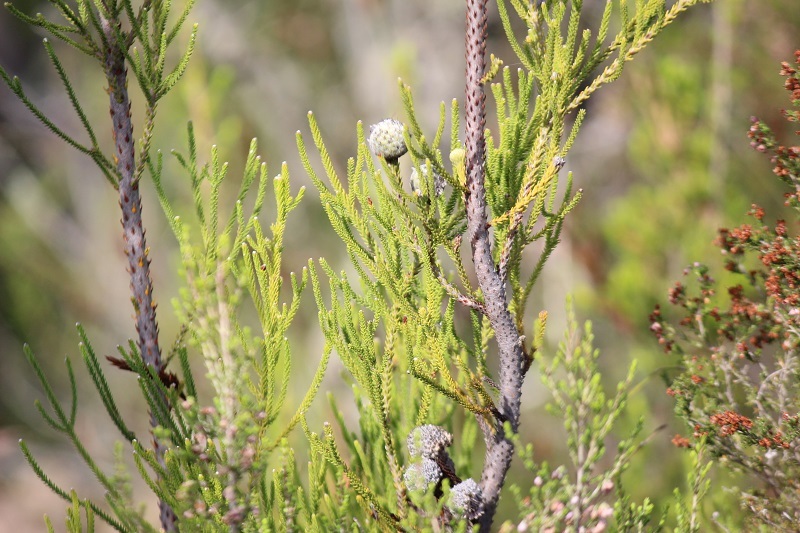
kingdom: Plantae
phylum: Tracheophyta
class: Magnoliopsida
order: Bruniales
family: Bruniaceae
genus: Brunia
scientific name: Brunia noduliflora
